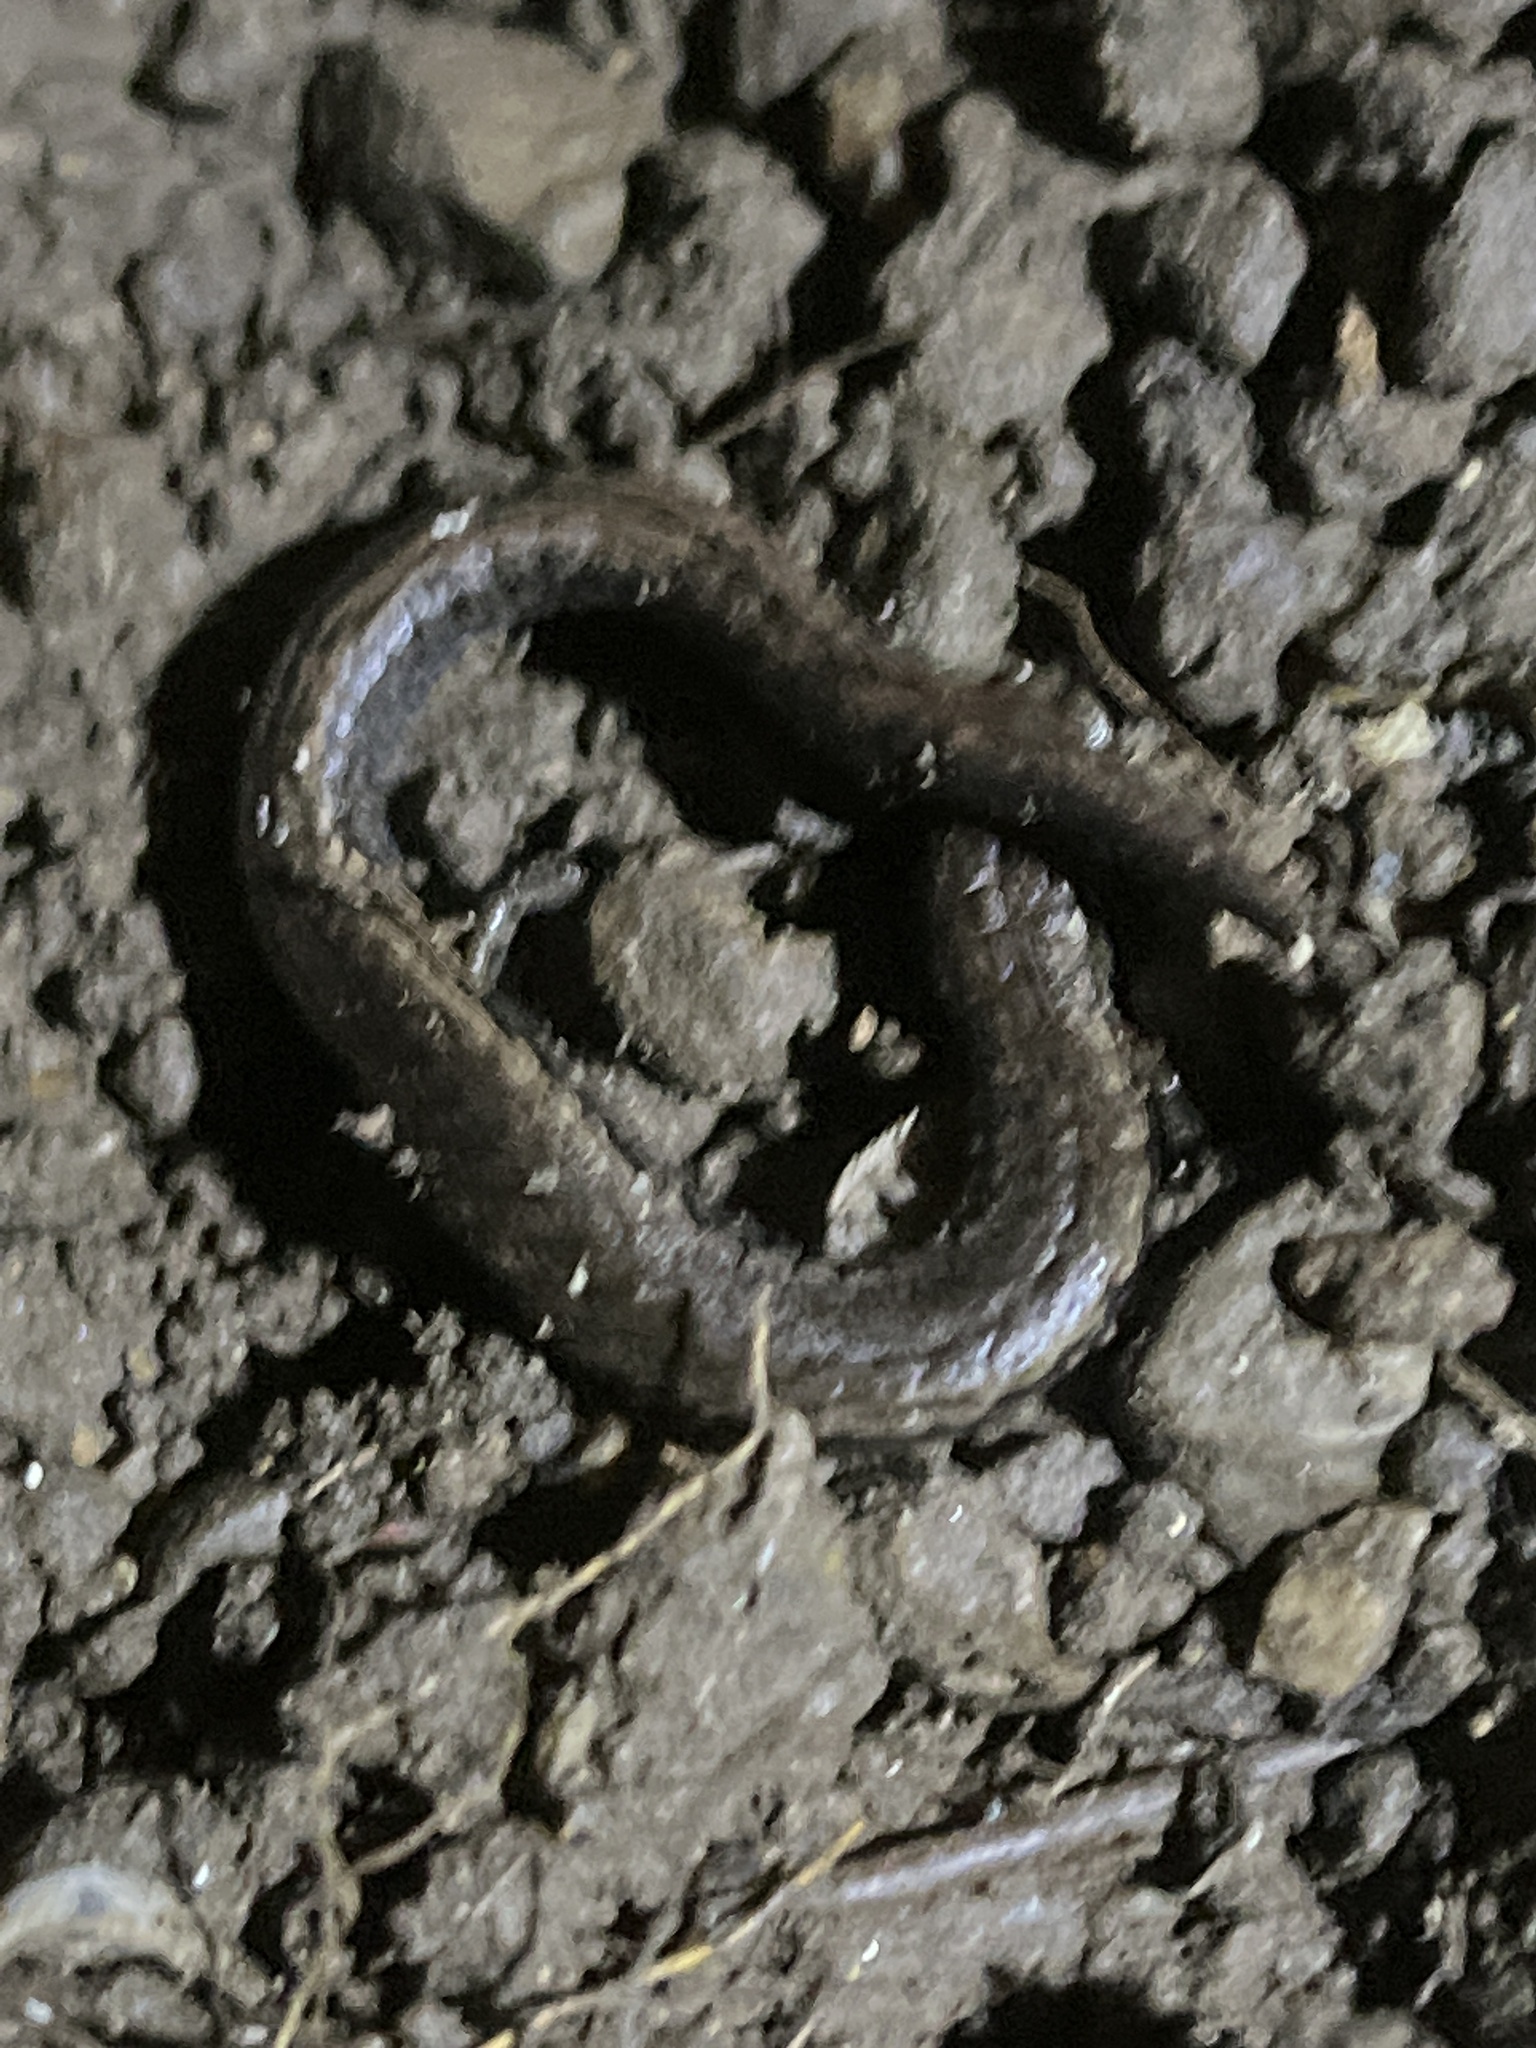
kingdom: Animalia
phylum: Chordata
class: Amphibia
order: Caudata
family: Plethodontidae
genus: Batrachoseps
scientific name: Batrachoseps attenuatus
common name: California slender salamander
